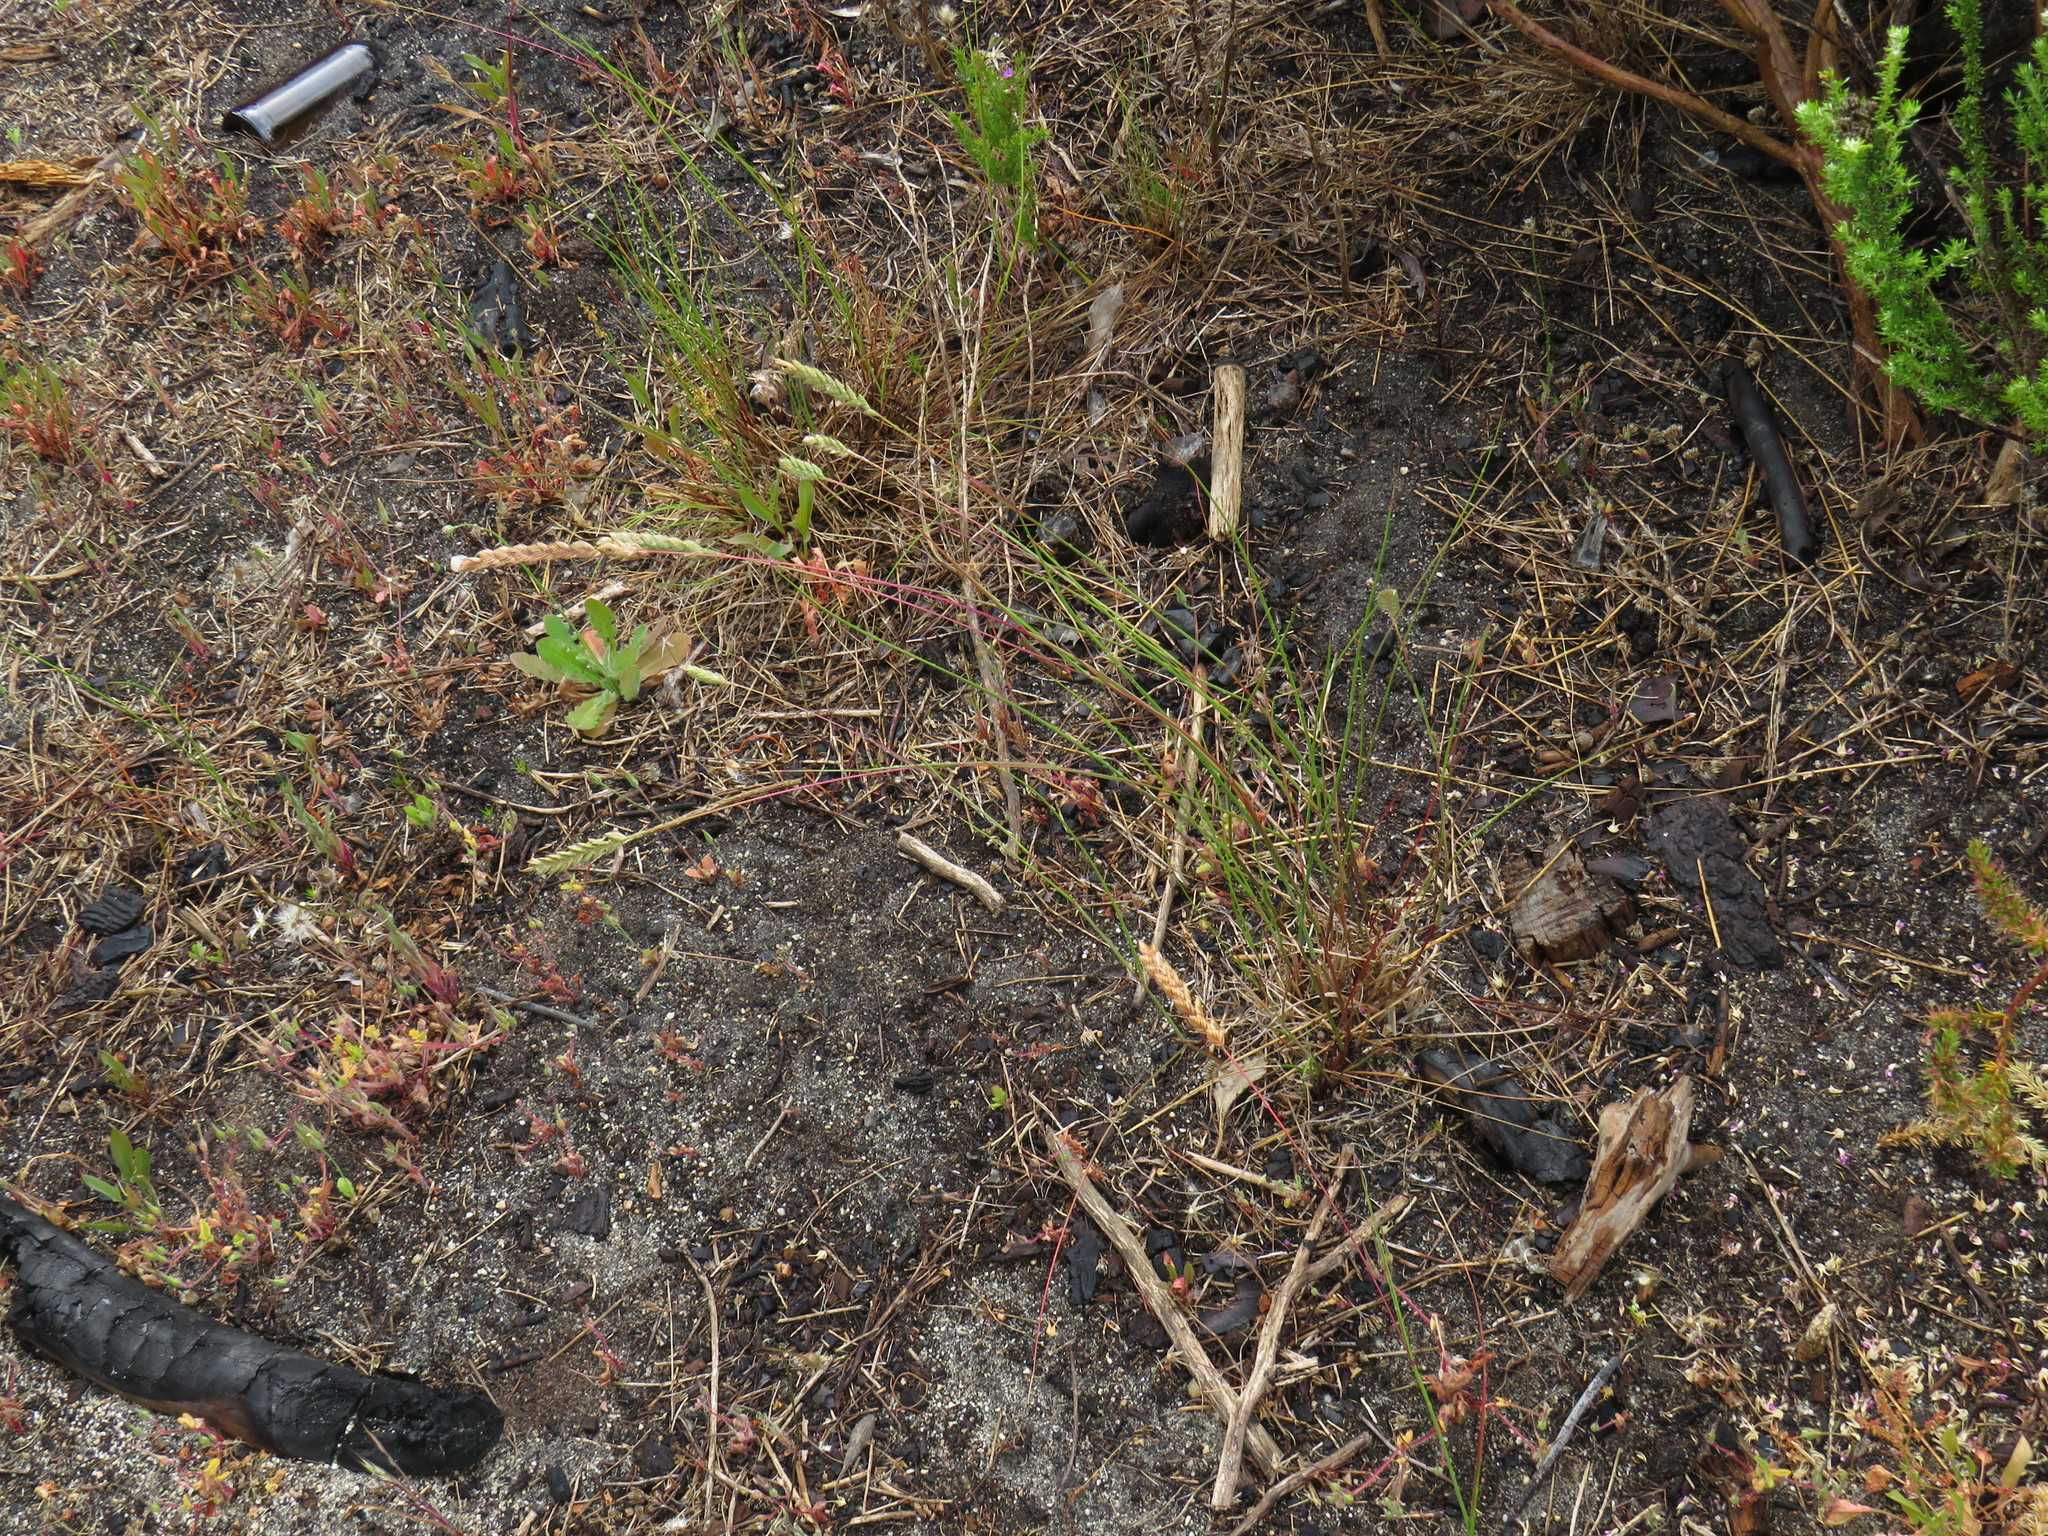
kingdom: Plantae
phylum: Tracheophyta
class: Liliopsida
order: Poales
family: Poaceae
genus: Tribolium
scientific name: Tribolium uniolae
